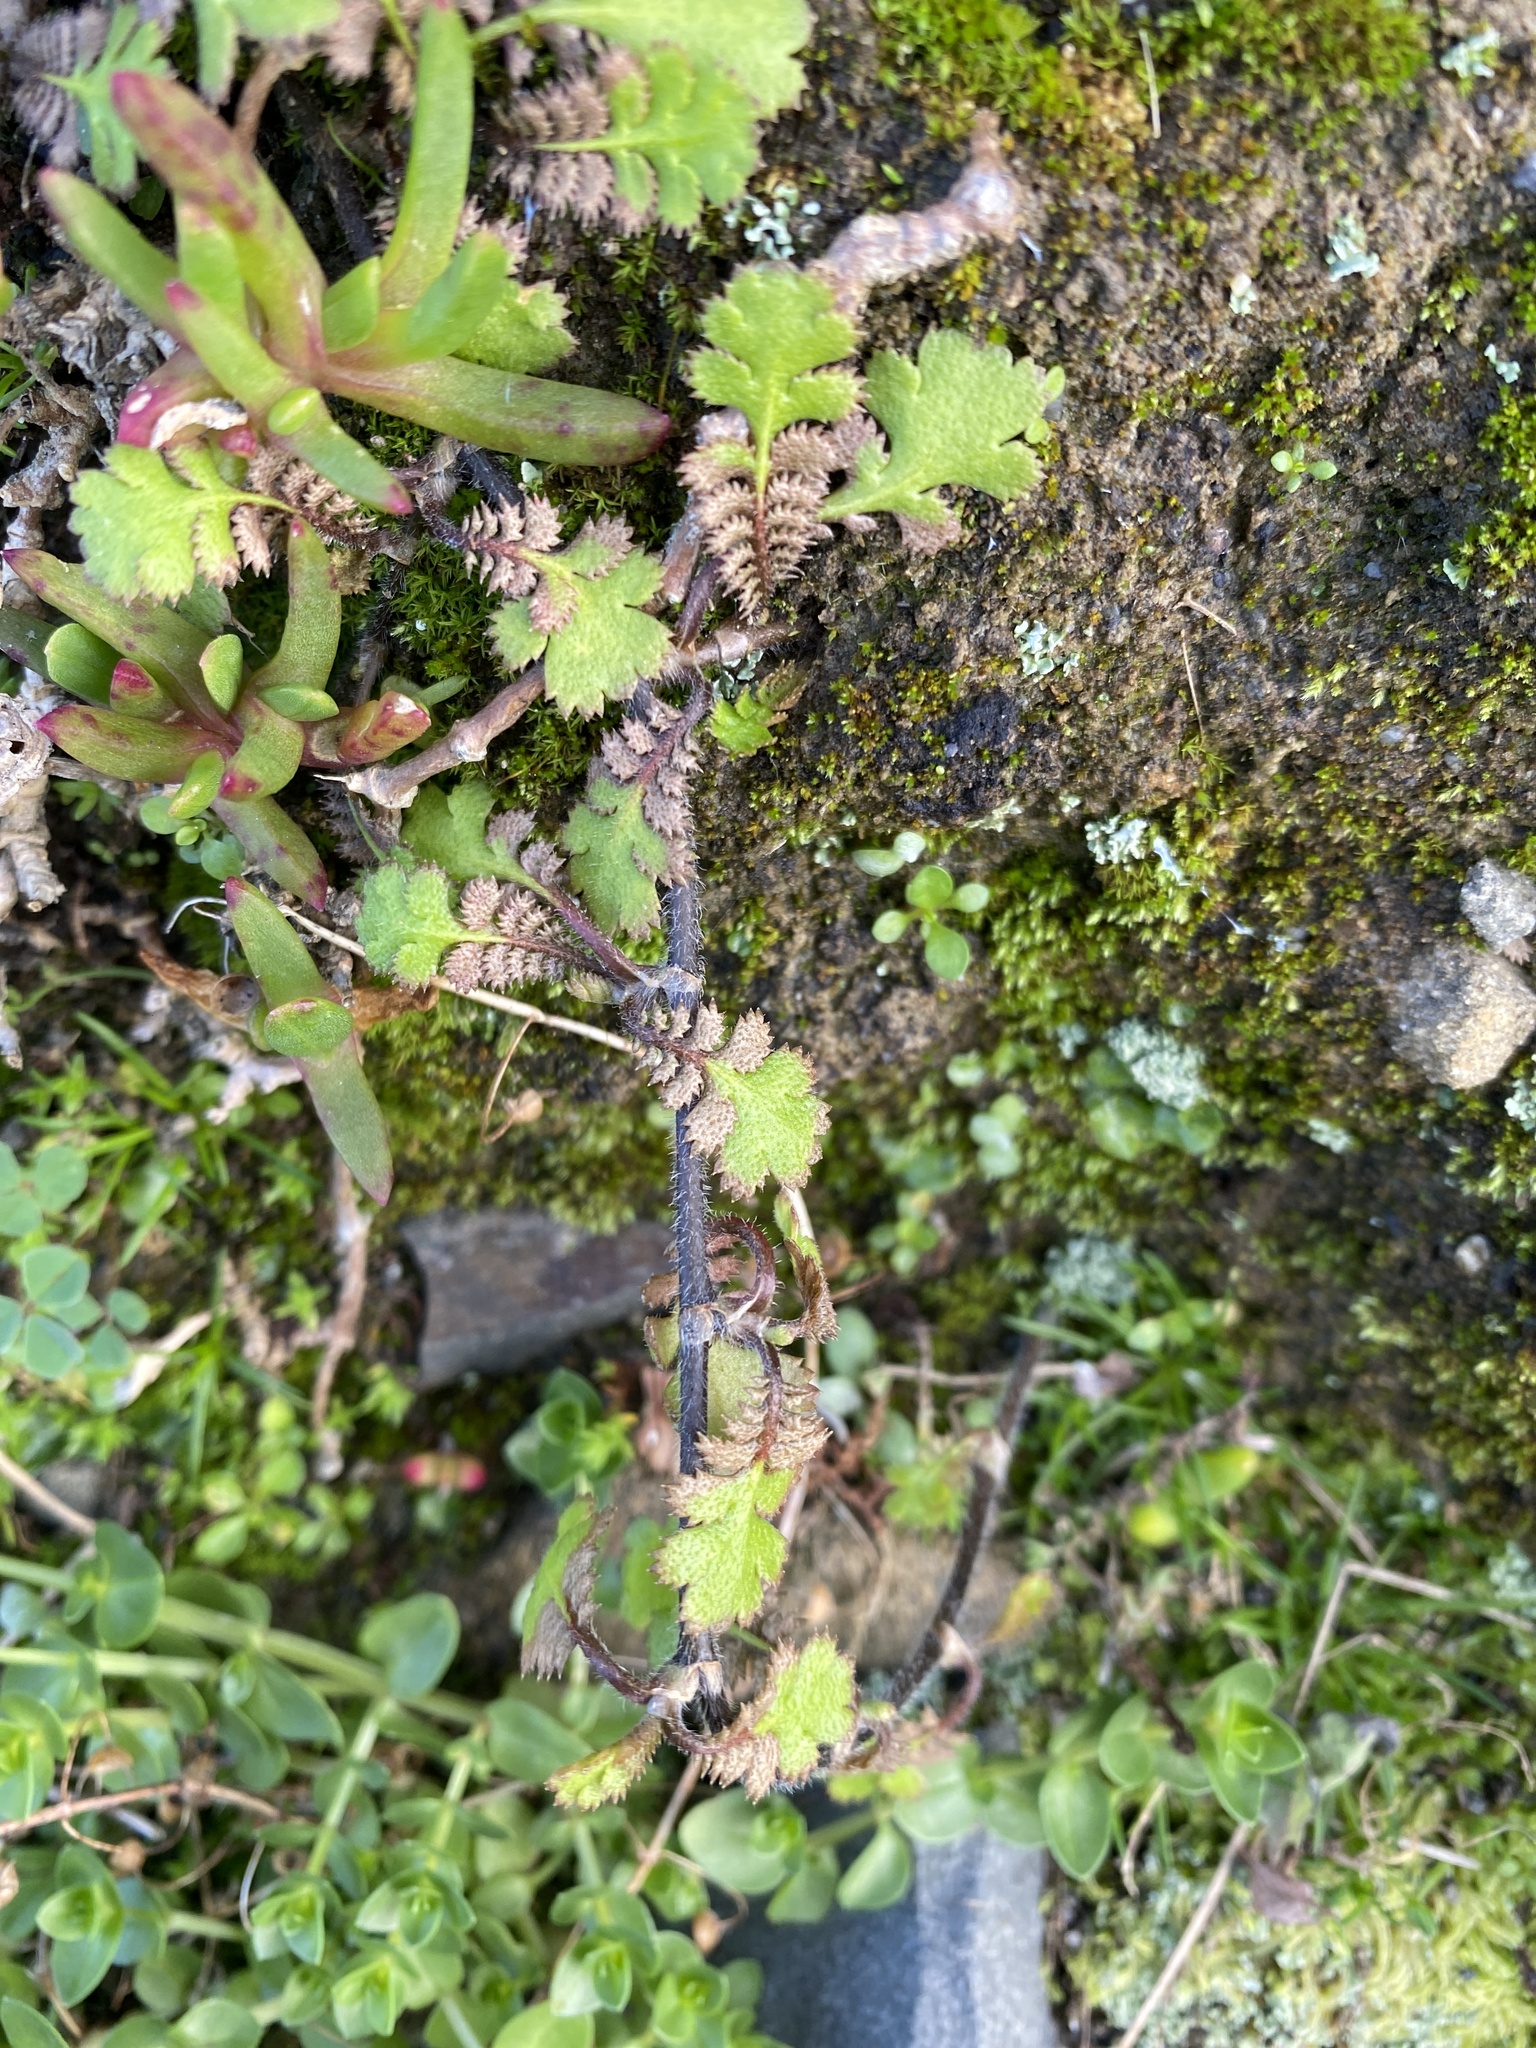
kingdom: Plantae
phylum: Tracheophyta
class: Magnoliopsida
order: Asterales
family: Asteraceae
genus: Leptinella
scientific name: Leptinella squalida
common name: New zealand brass-buttons
